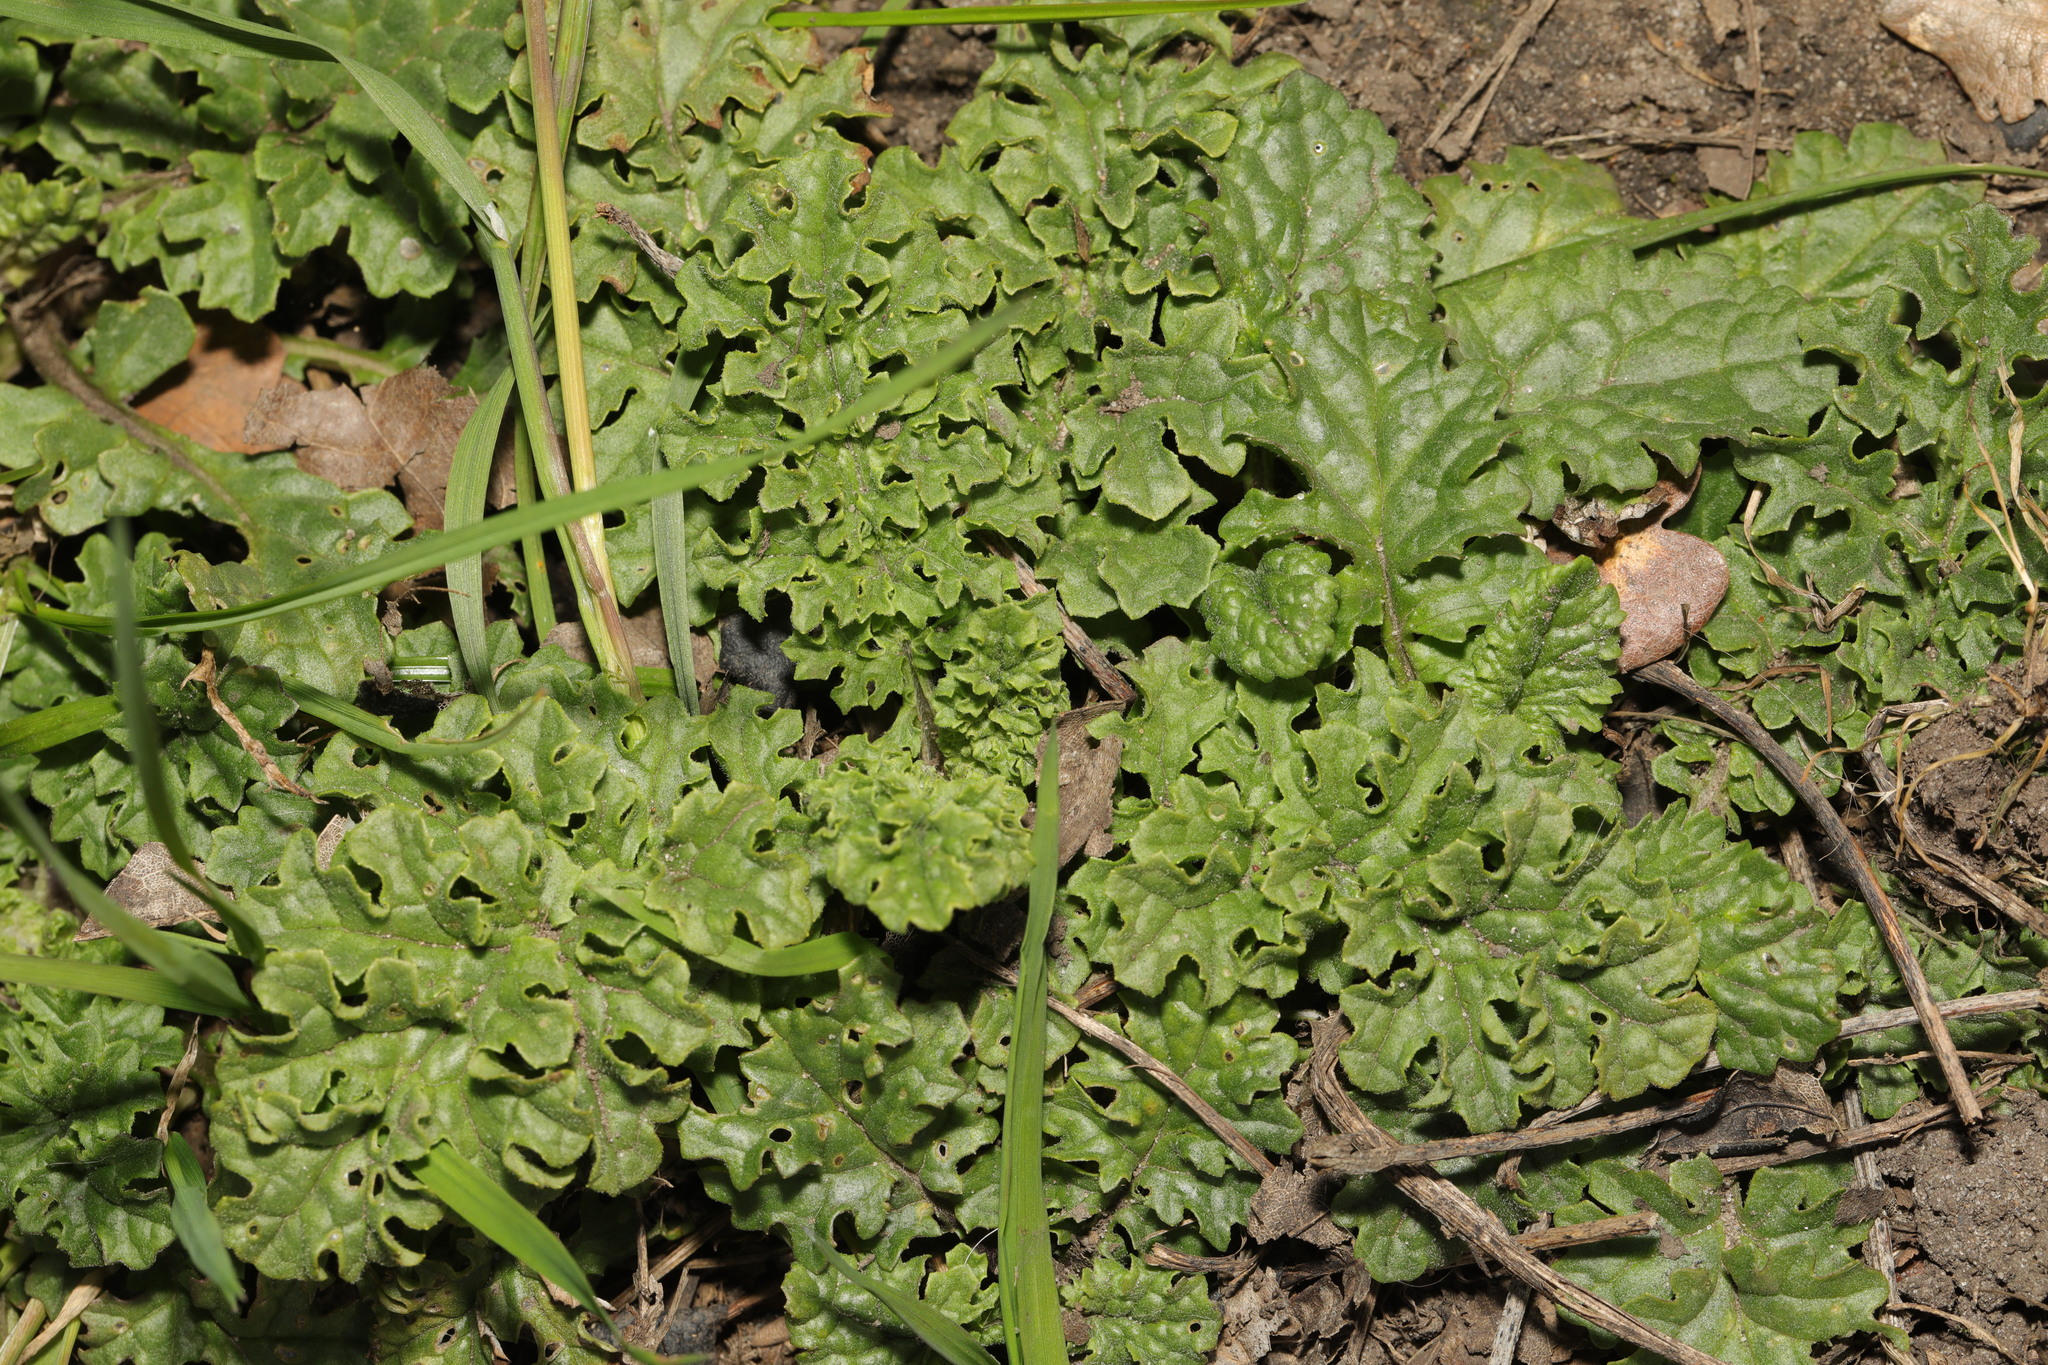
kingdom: Plantae
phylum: Tracheophyta
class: Magnoliopsida
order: Asterales
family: Asteraceae
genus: Jacobaea
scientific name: Jacobaea vulgaris
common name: Stinking willie
